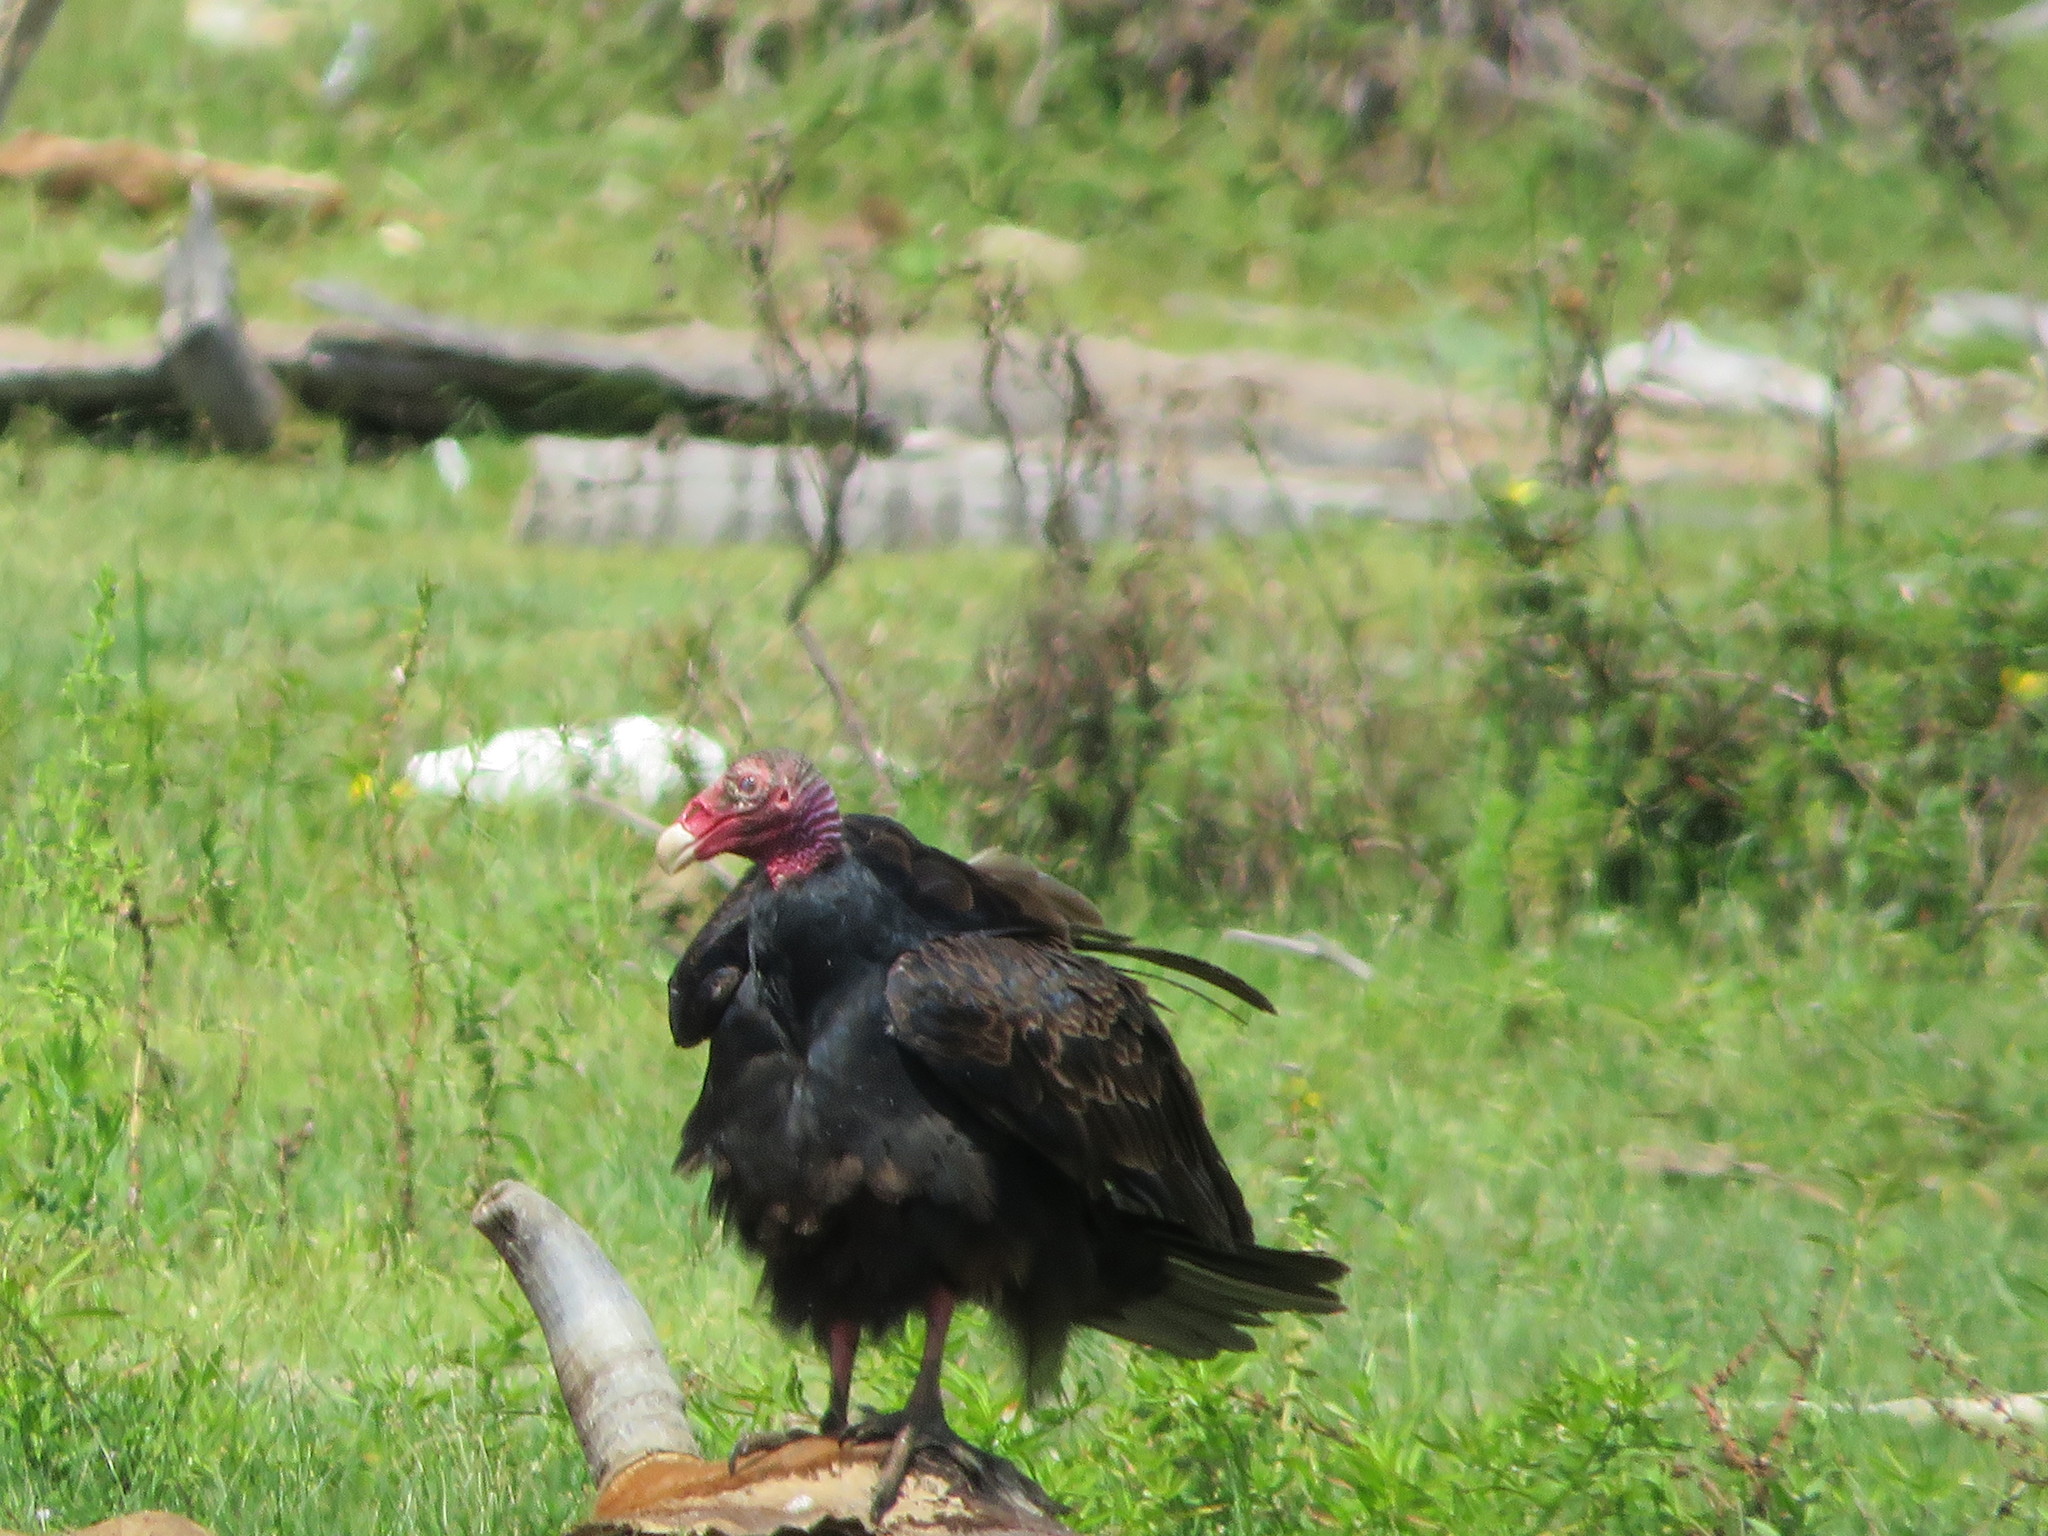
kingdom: Animalia
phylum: Chordata
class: Aves
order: Accipitriformes
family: Cathartidae
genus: Cathartes
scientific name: Cathartes aura
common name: Turkey vulture
